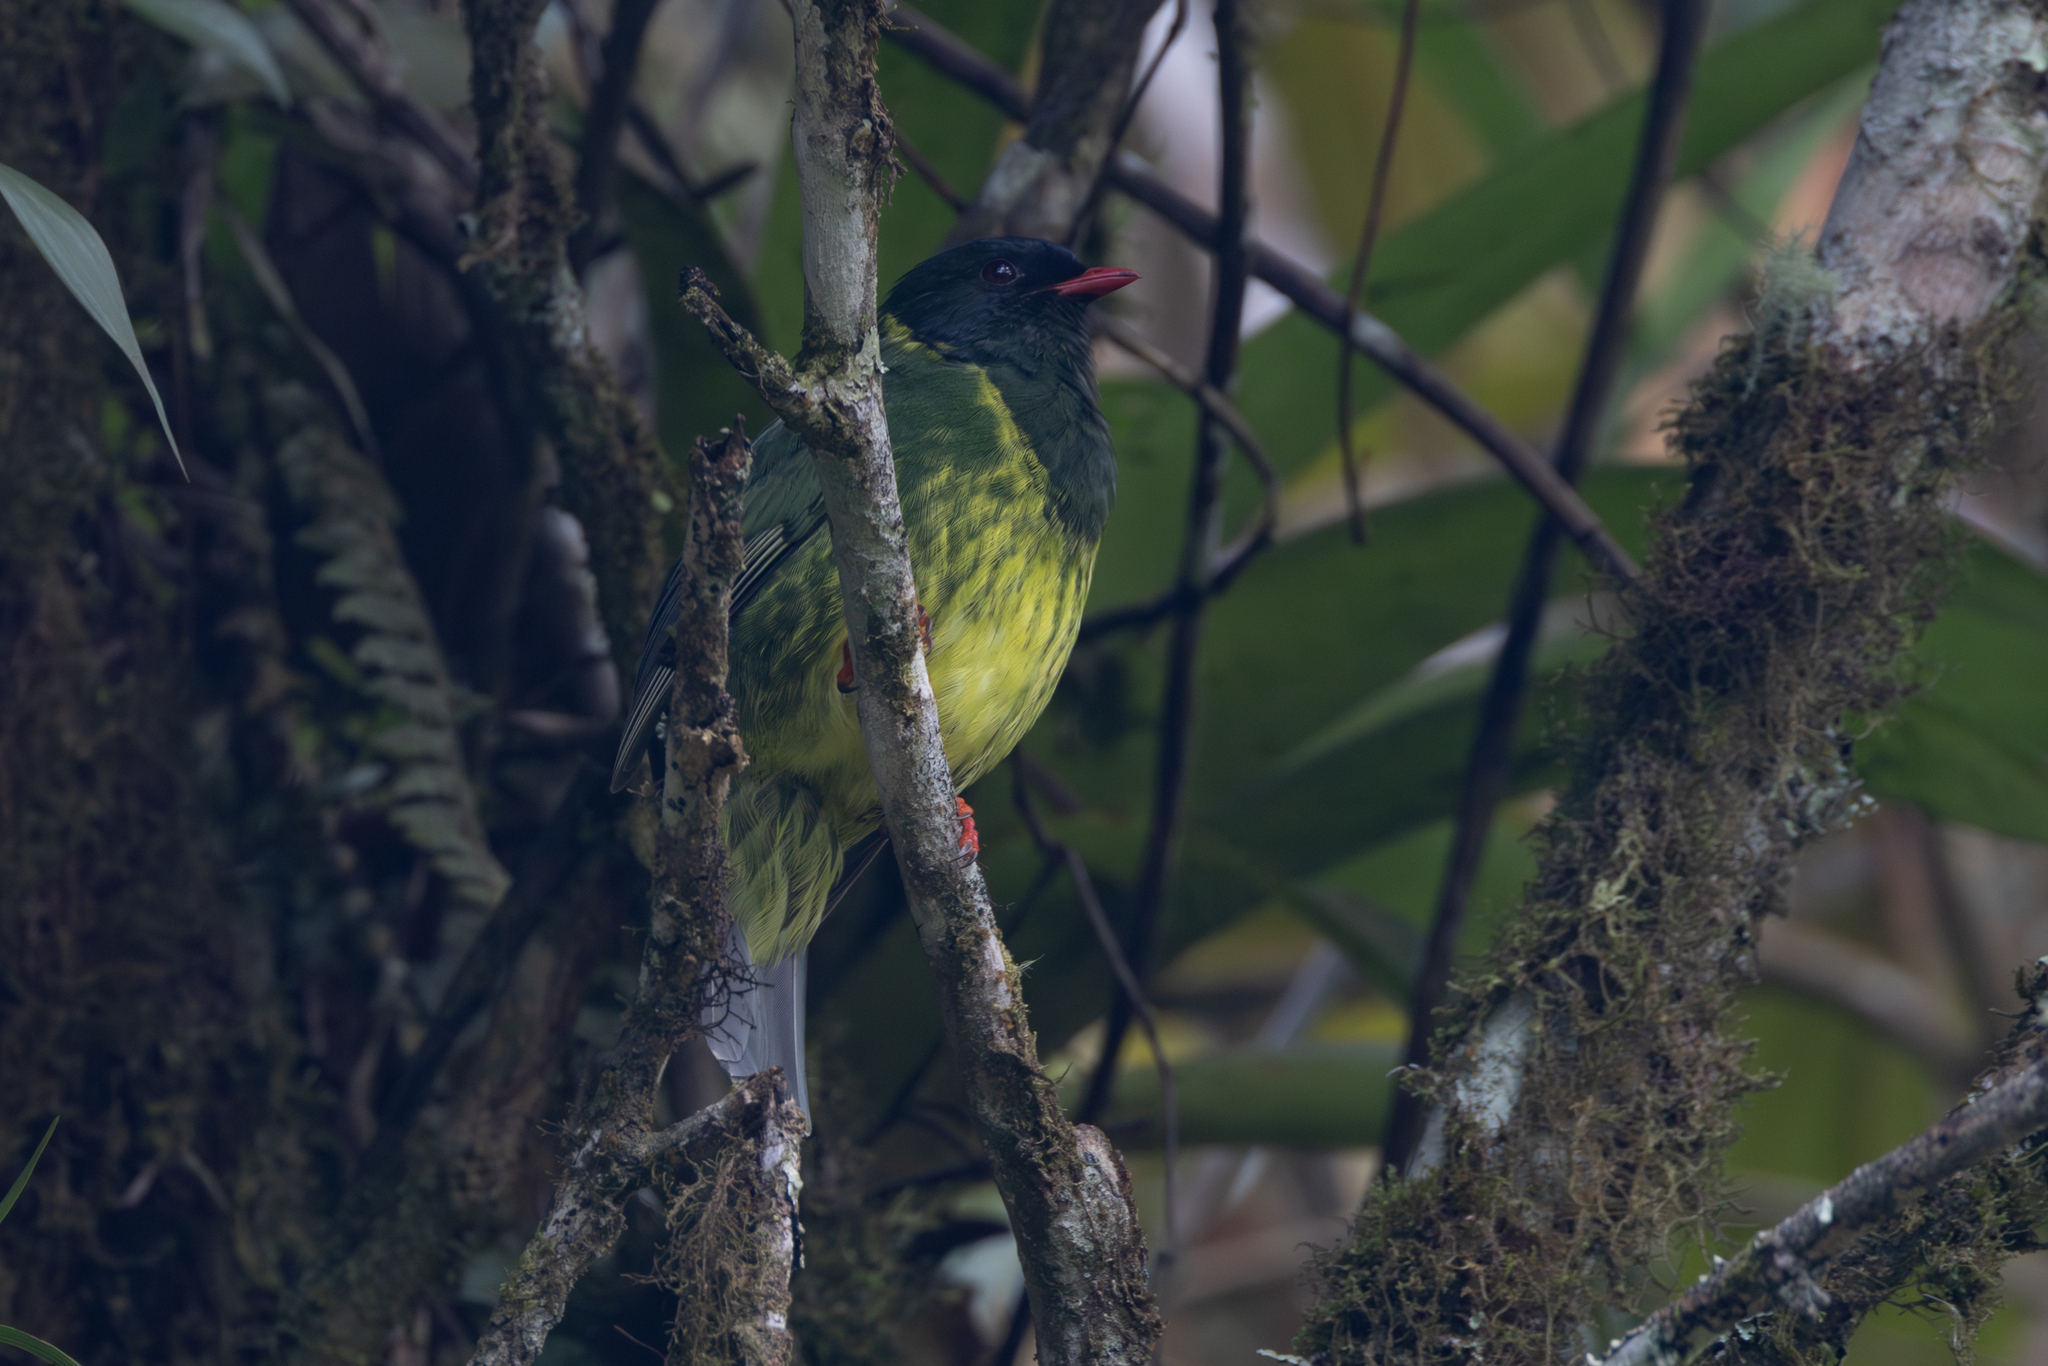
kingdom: Animalia
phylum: Chordata
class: Aves
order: Passeriformes
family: Cotingidae
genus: Pipreola
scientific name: Pipreola riefferii
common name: Green-and-black fruiteater
